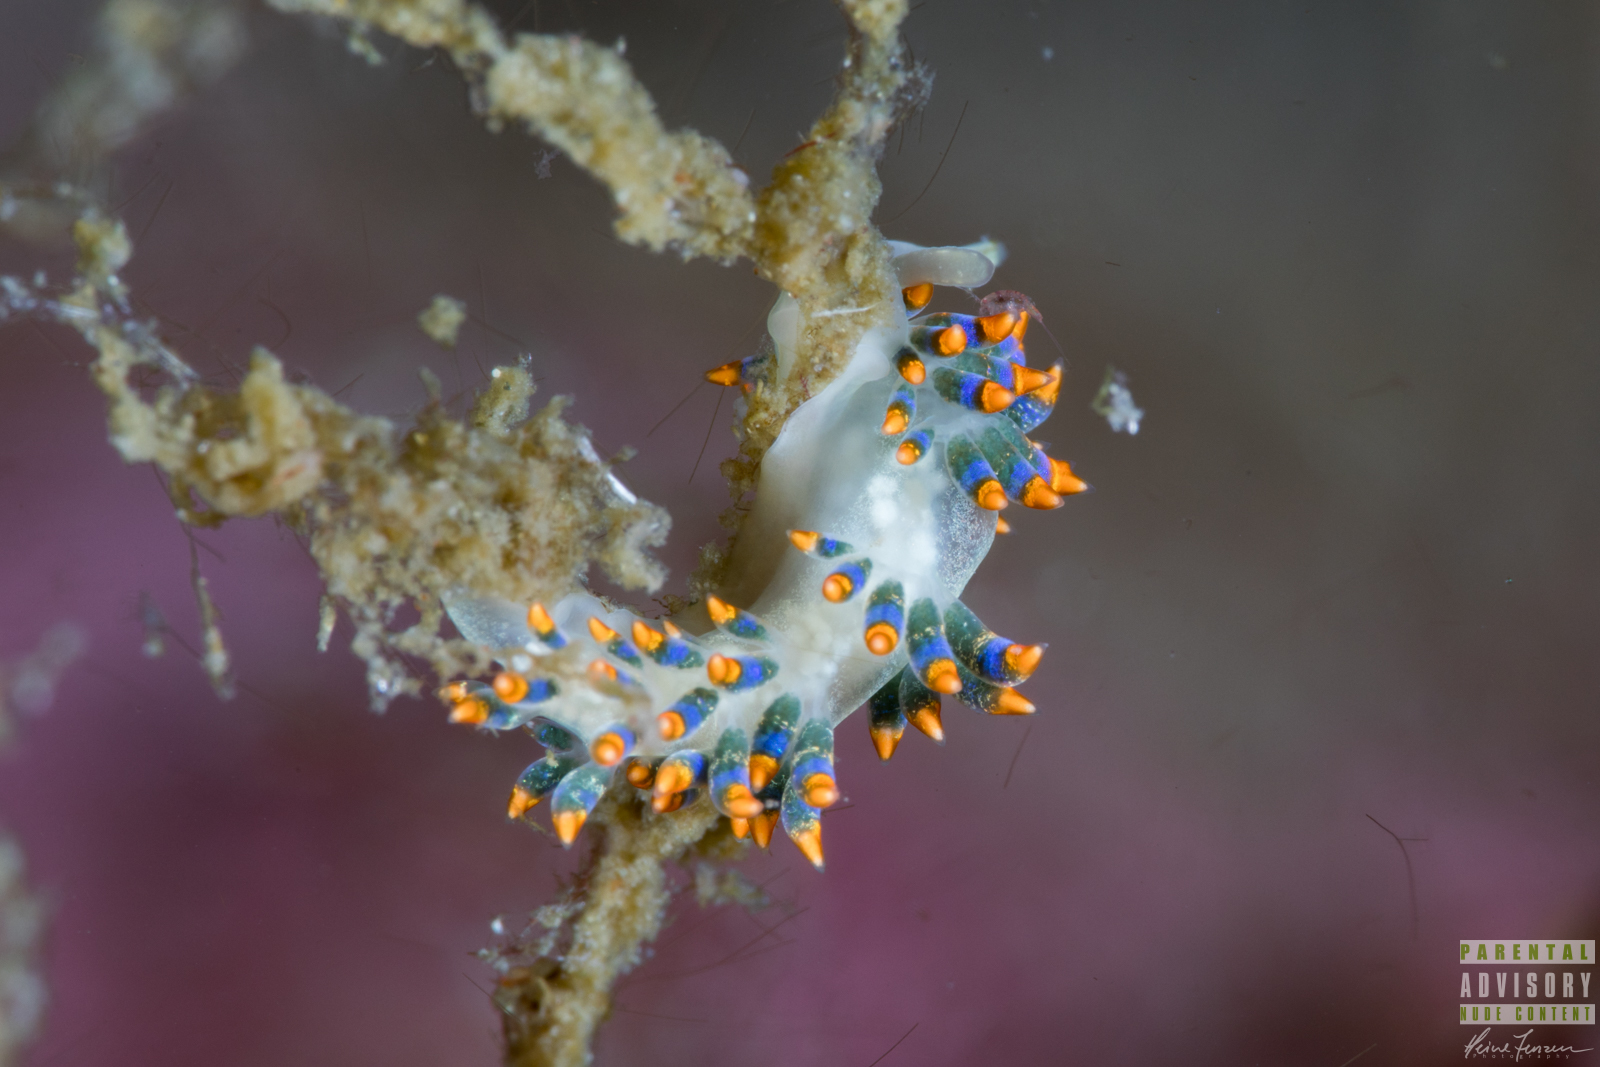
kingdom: Animalia
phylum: Mollusca
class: Gastropoda
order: Nudibranchia
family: Trinchesiidae
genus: Trinchesia
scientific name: Trinchesia cuanensis
